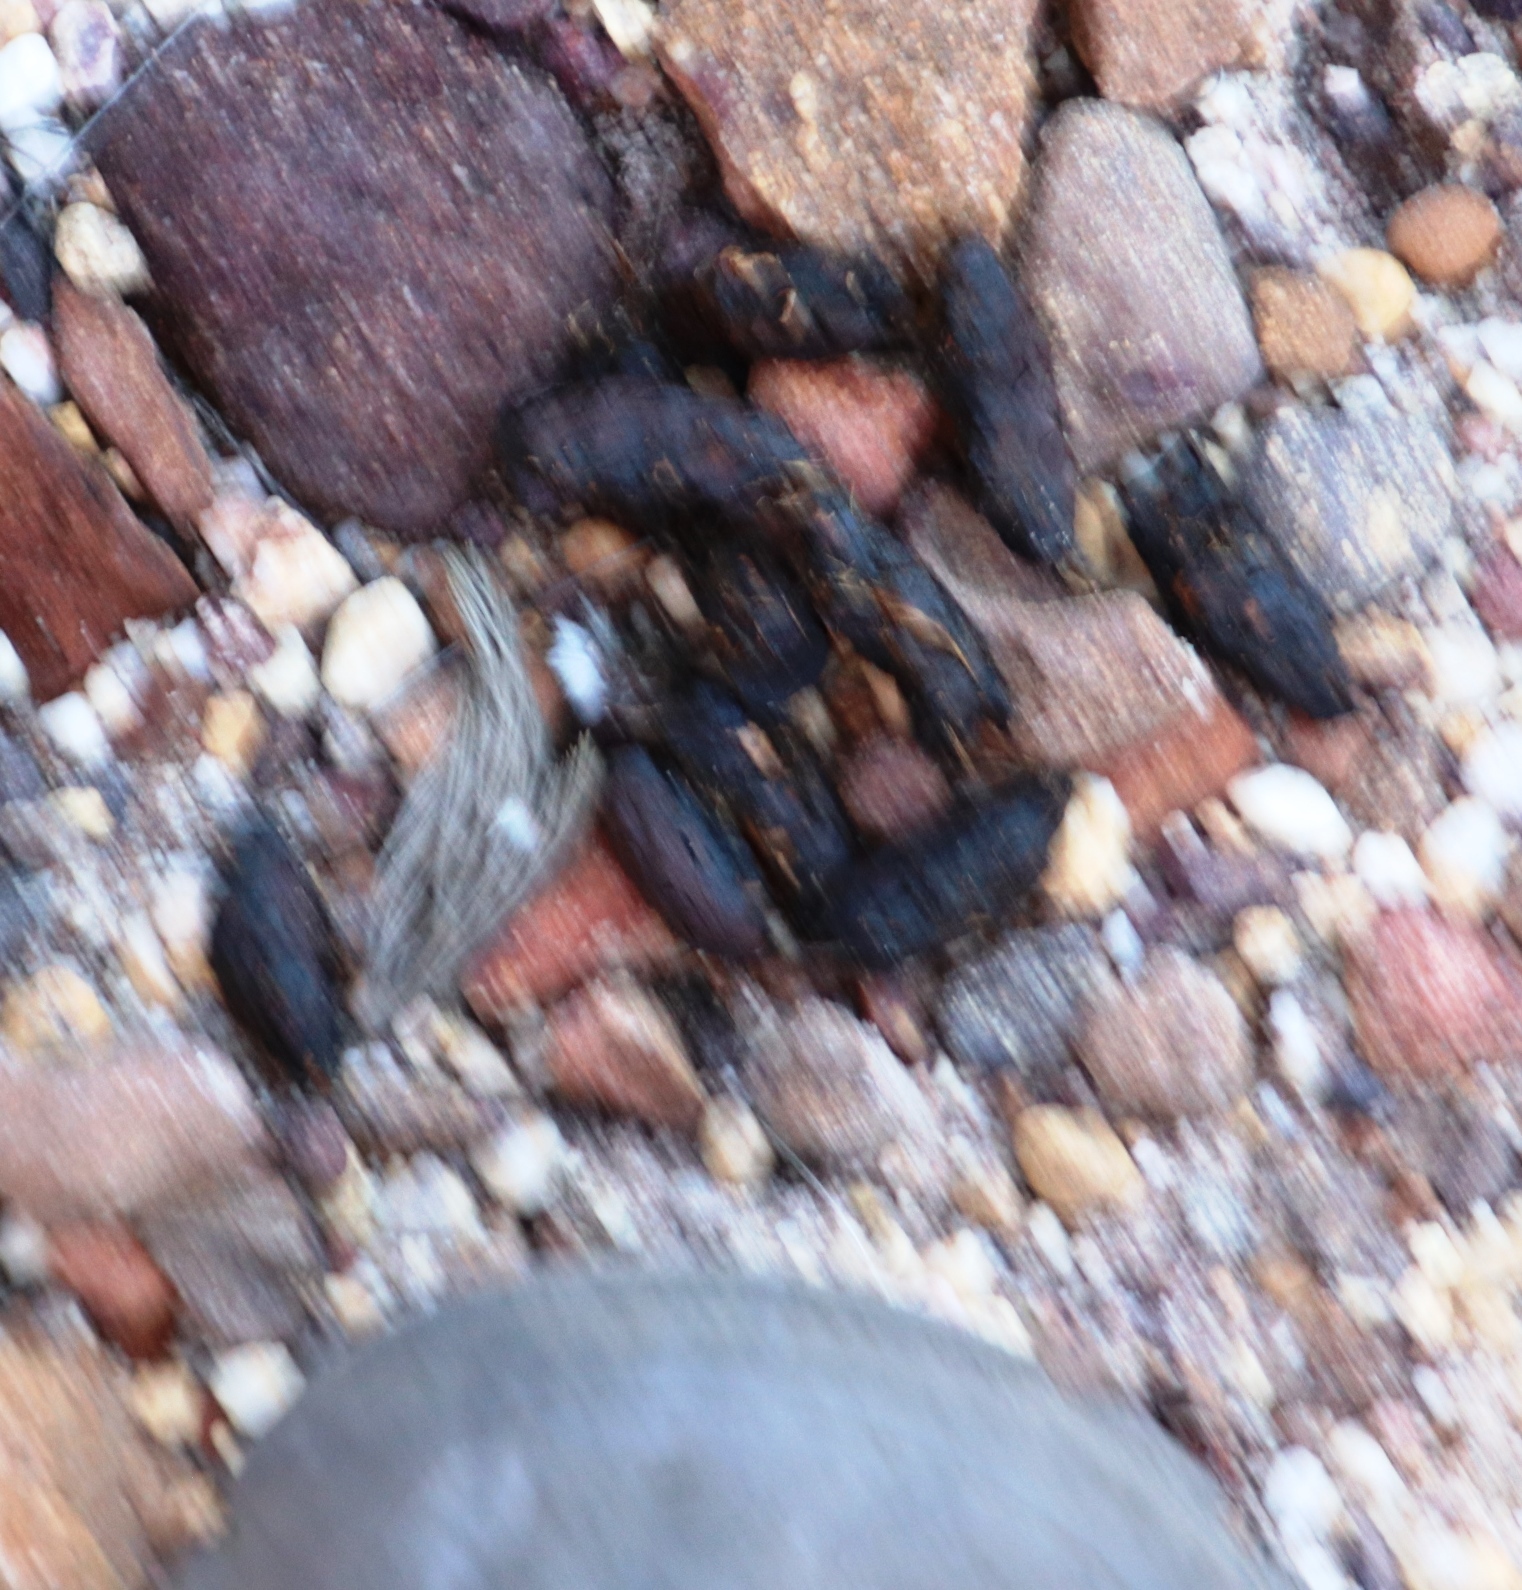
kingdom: Animalia
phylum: Chordata
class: Mammalia
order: Rodentia
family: Hystricidae
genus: Hystrix
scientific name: Hystrix africaeaustralis
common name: Cape porcupine
